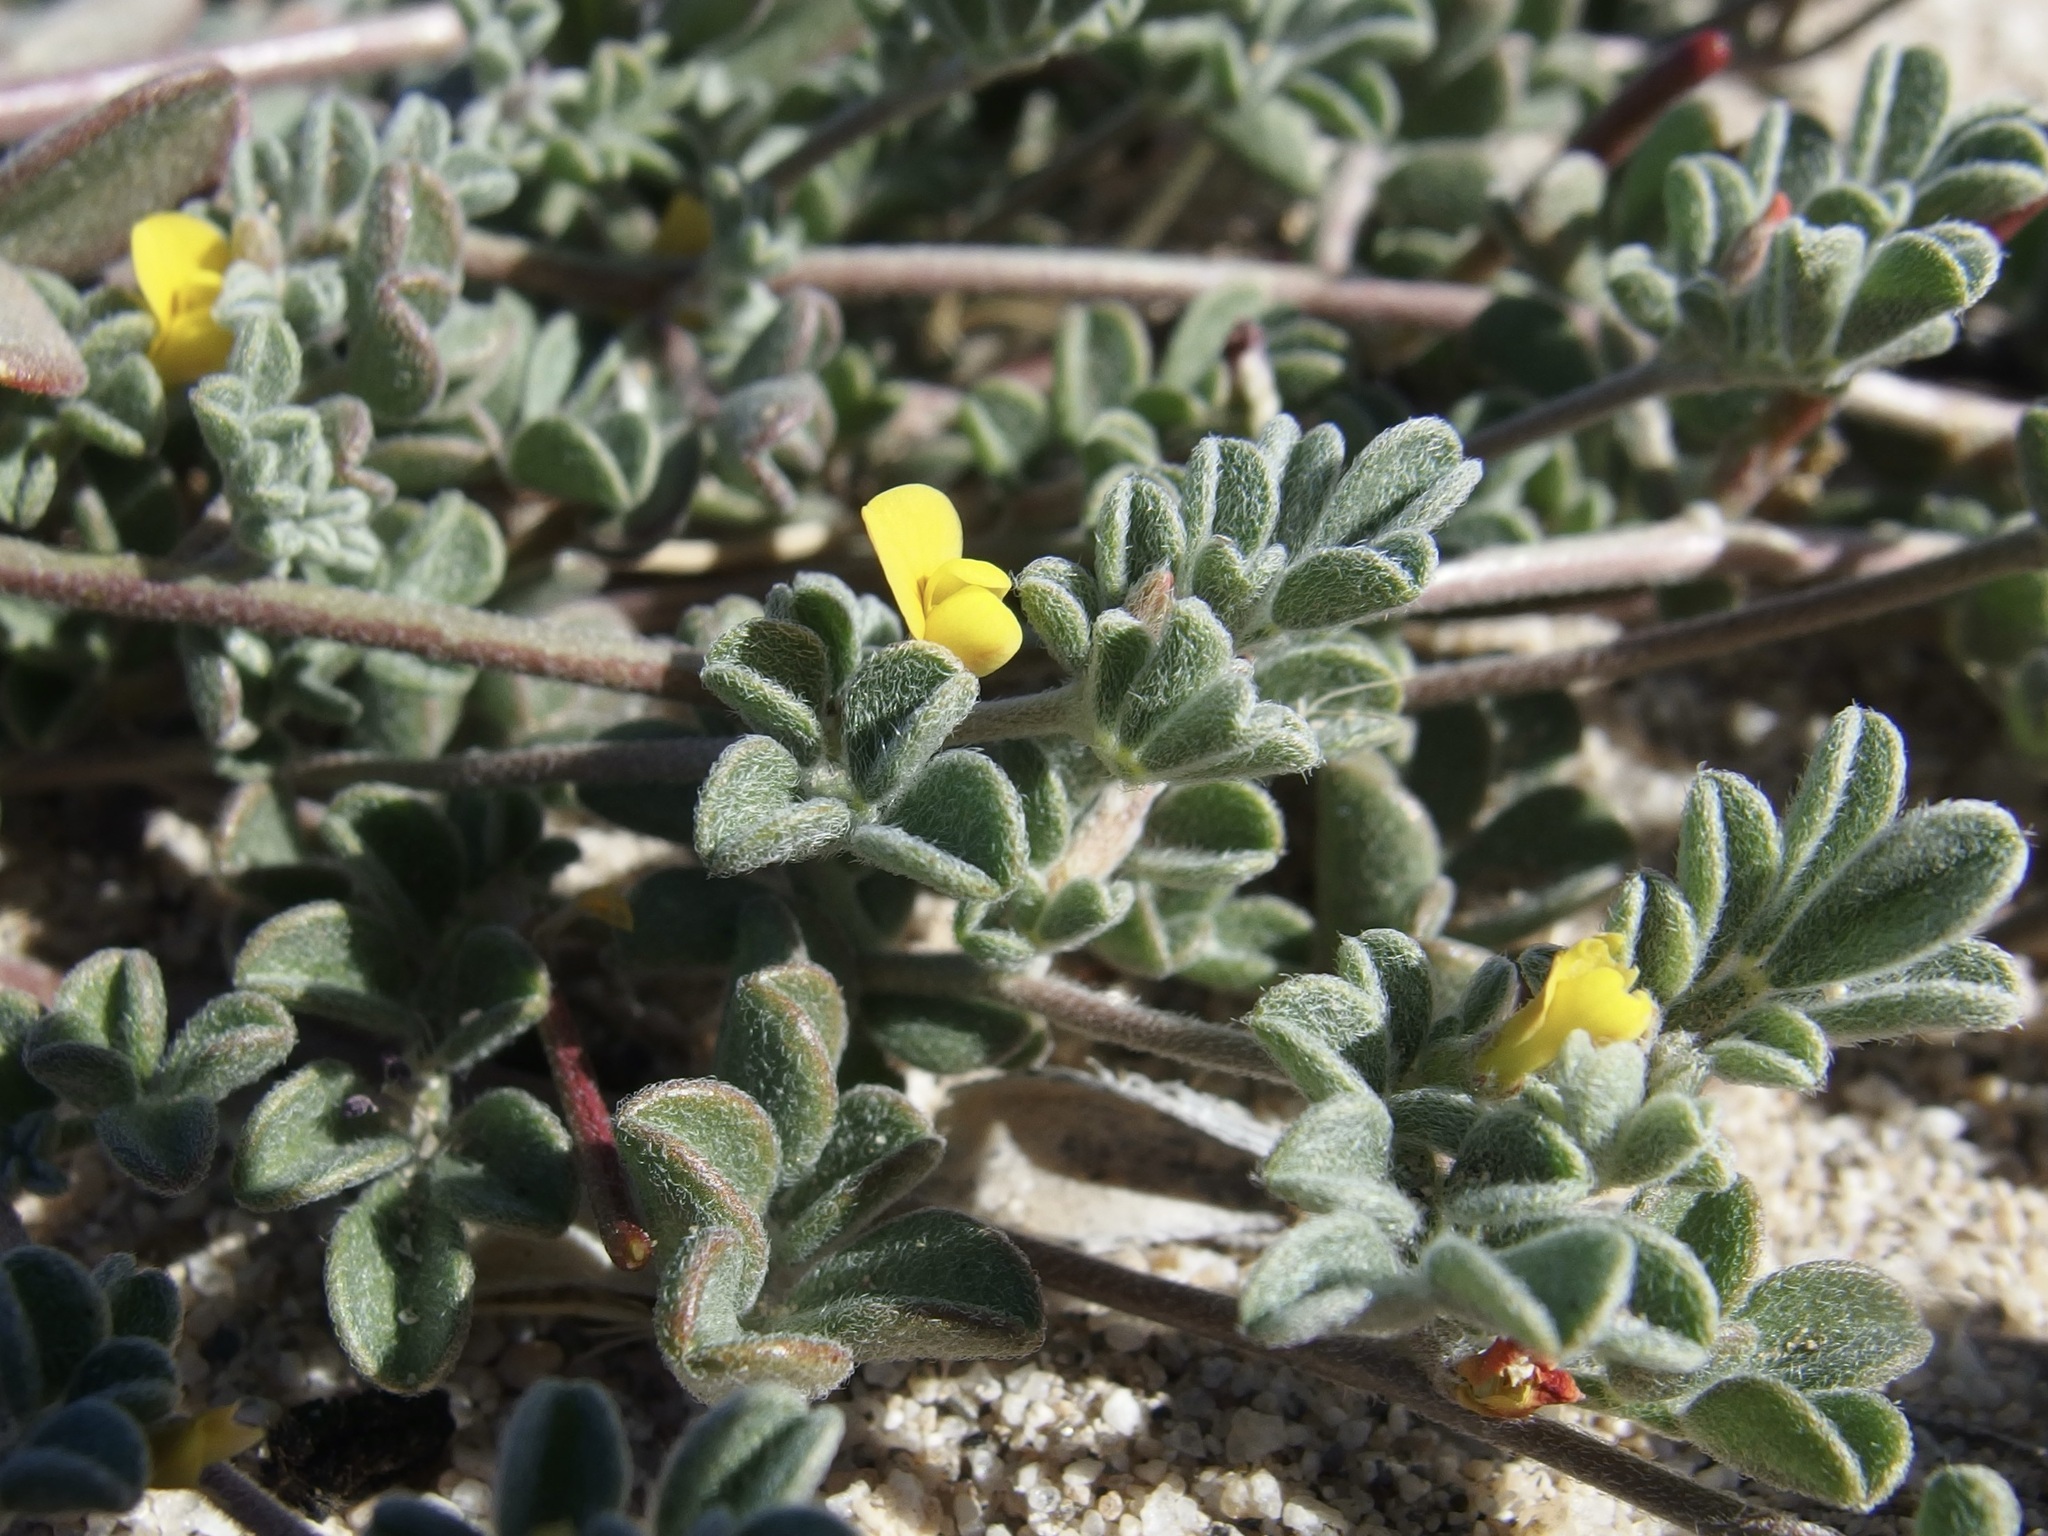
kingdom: Plantae
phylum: Tracheophyta
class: Magnoliopsida
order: Fabales
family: Fabaceae
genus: Acmispon
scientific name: Acmispon strigosus
